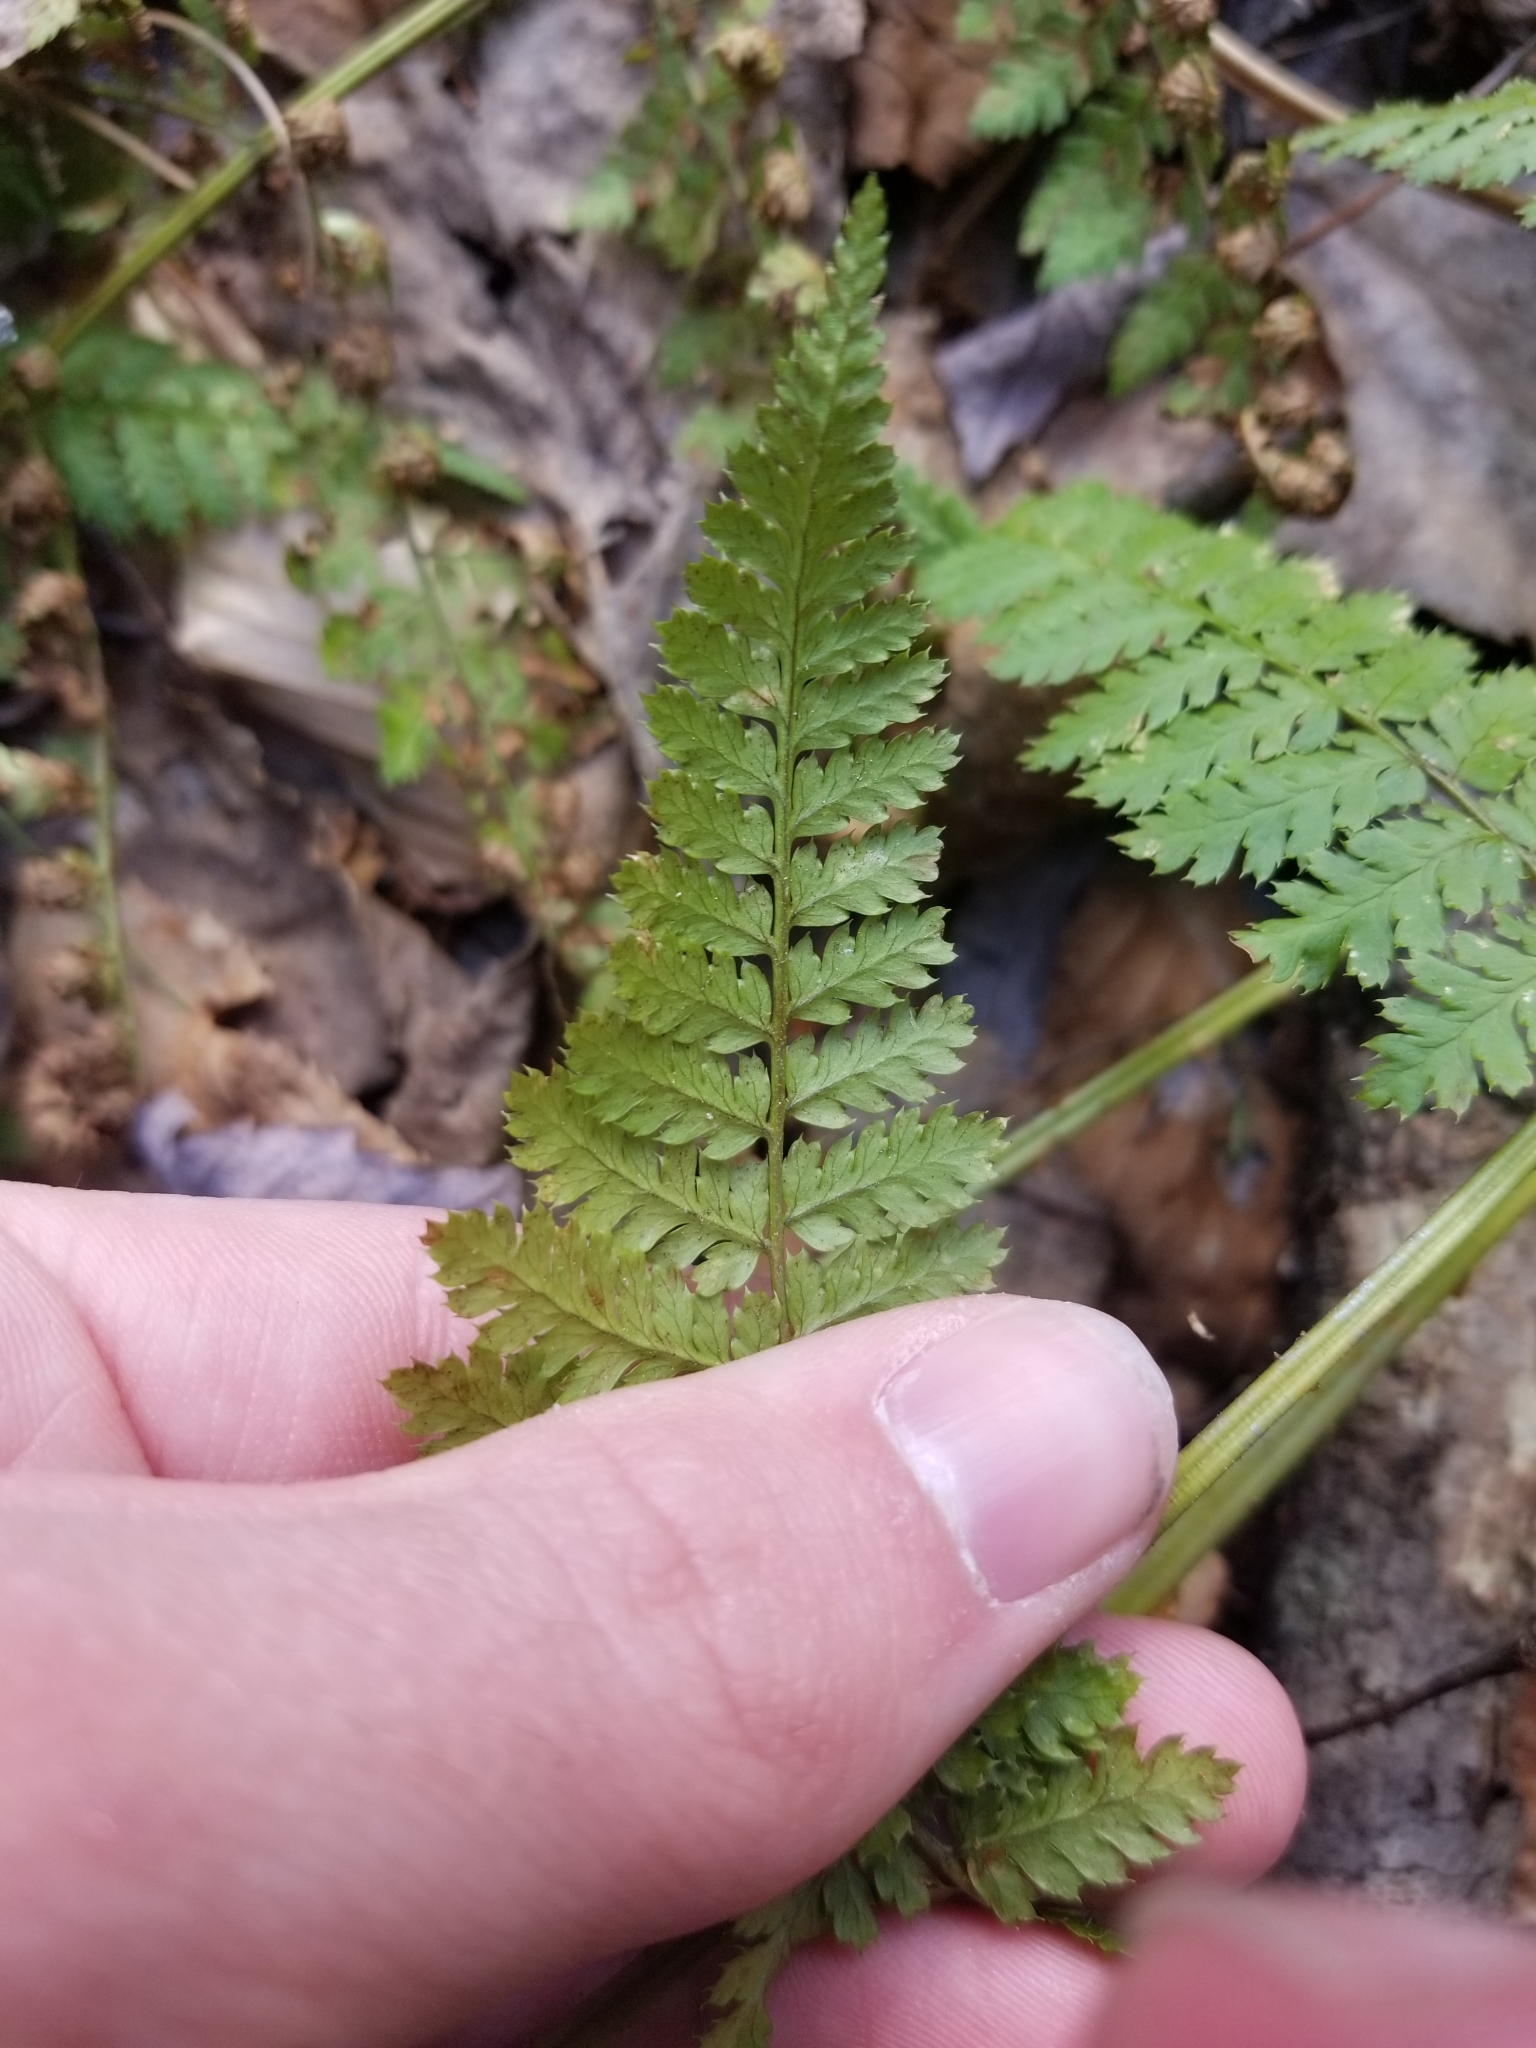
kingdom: Plantae
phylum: Tracheophyta
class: Polypodiopsida
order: Polypodiales
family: Dryopteridaceae
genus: Dryopteris
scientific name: Dryopteris intermedia
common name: Evergreen wood fern
